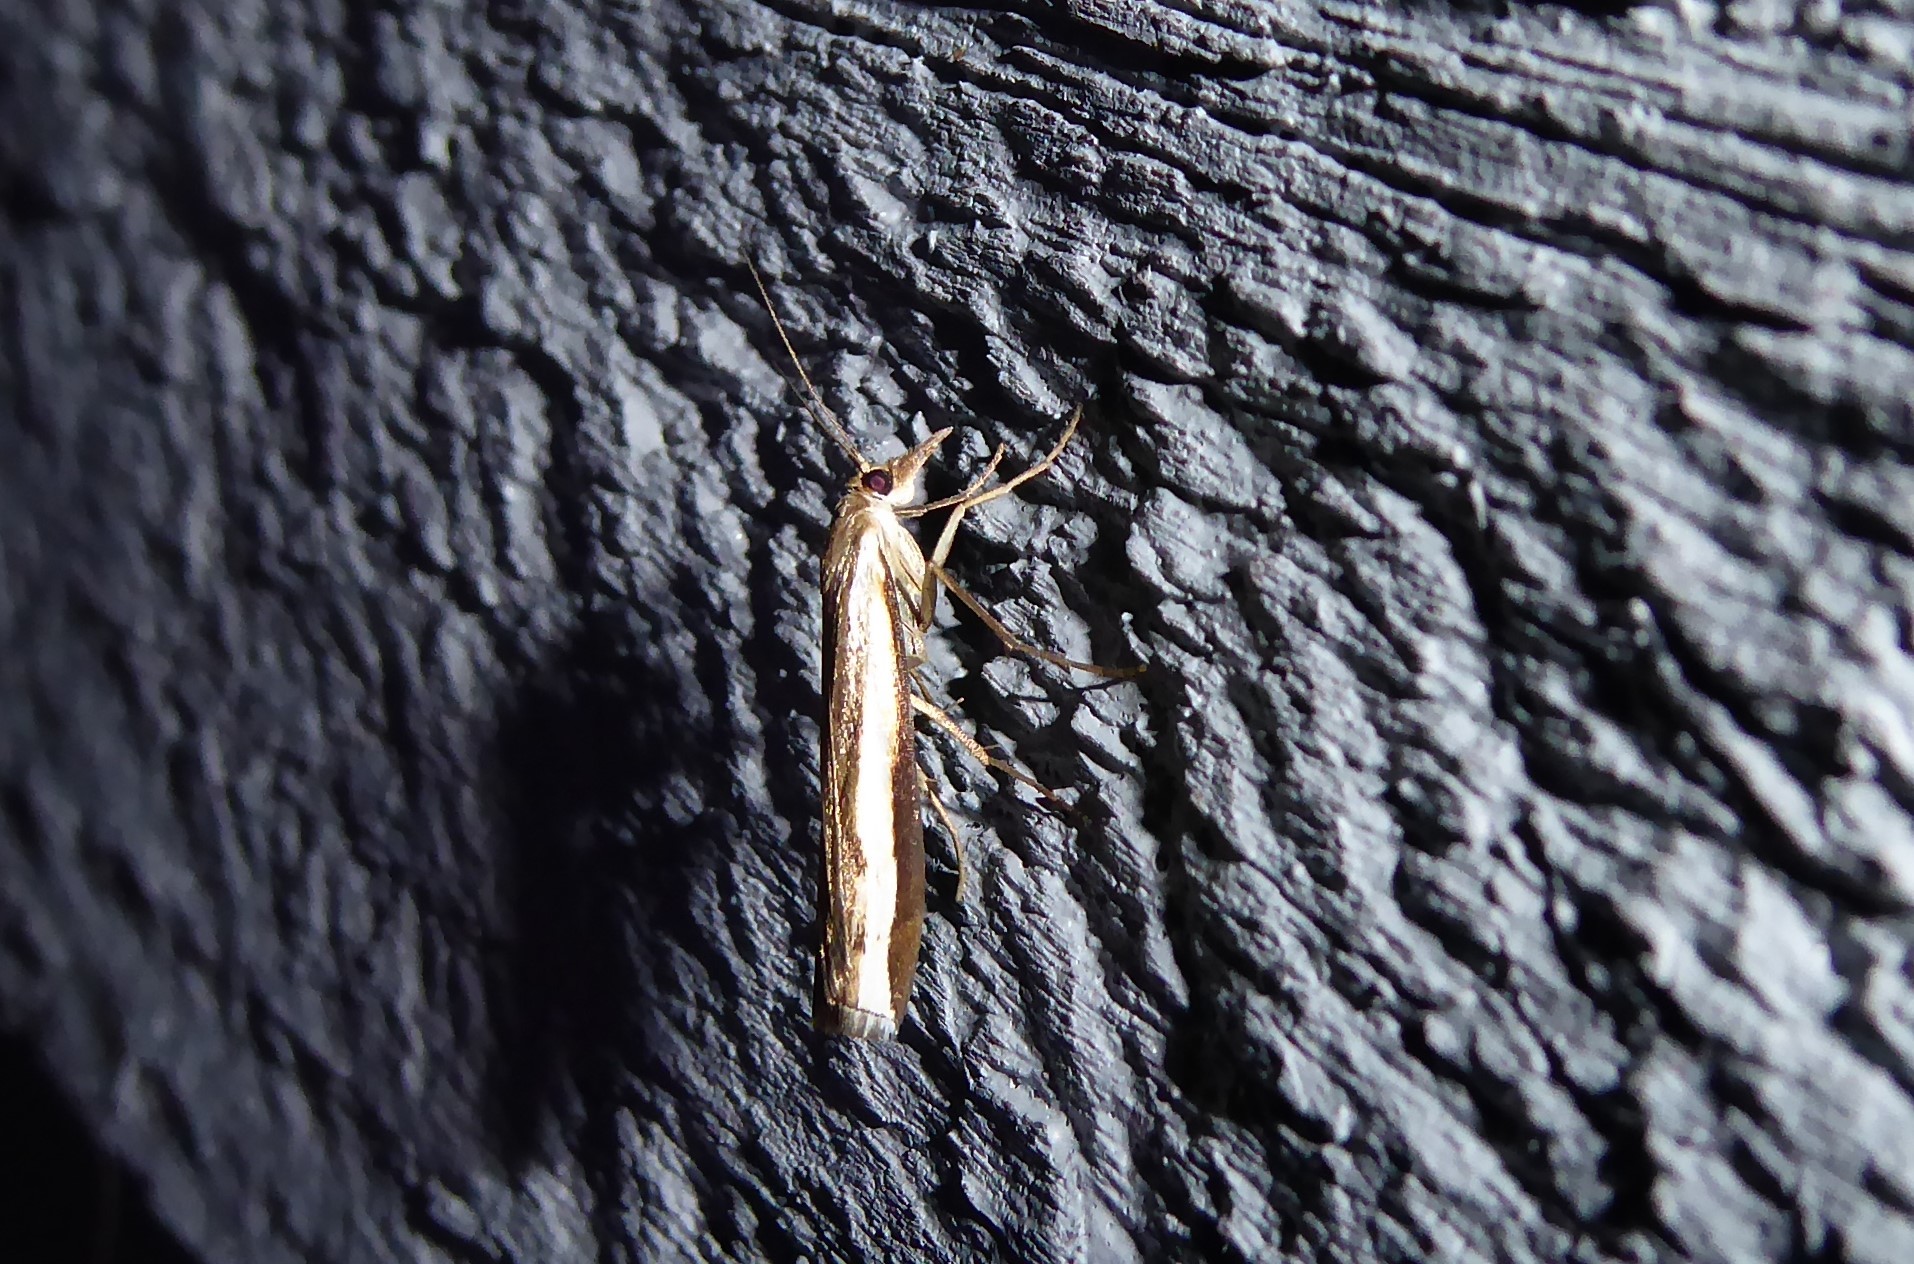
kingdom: Animalia
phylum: Arthropoda
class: Insecta
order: Lepidoptera
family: Crambidae
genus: Orocrambus
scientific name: Orocrambus flexuosellus
